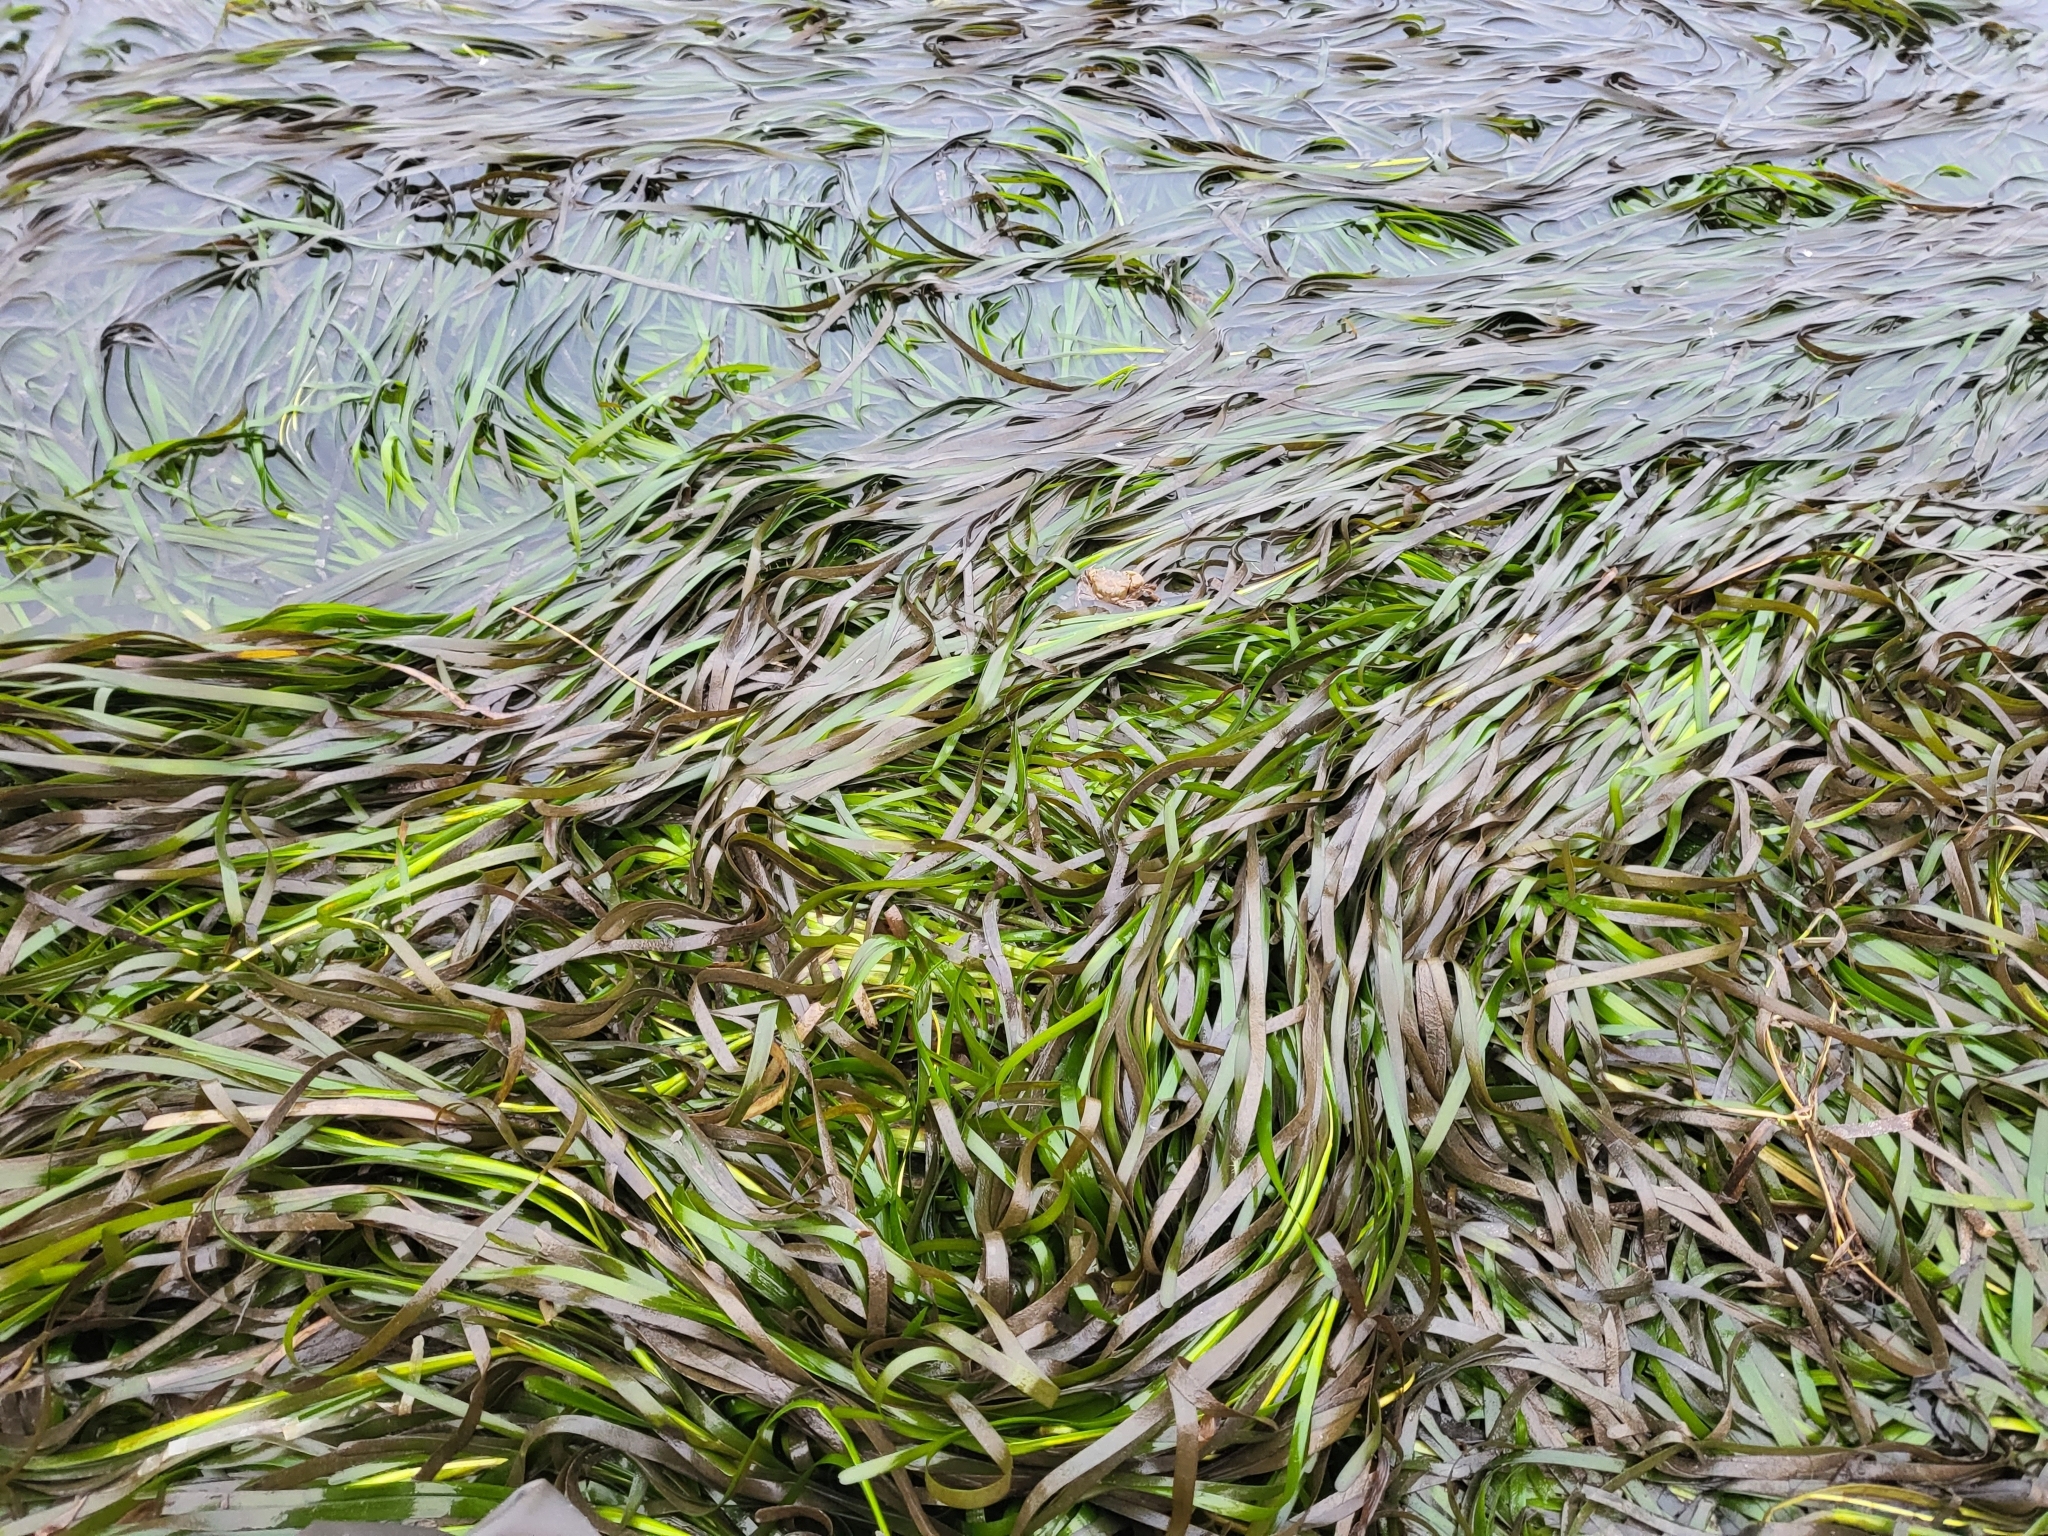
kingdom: Plantae
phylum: Tracheophyta
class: Liliopsida
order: Alismatales
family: Zosteraceae
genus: Zostera
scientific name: Zostera marina
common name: Eelgrass
